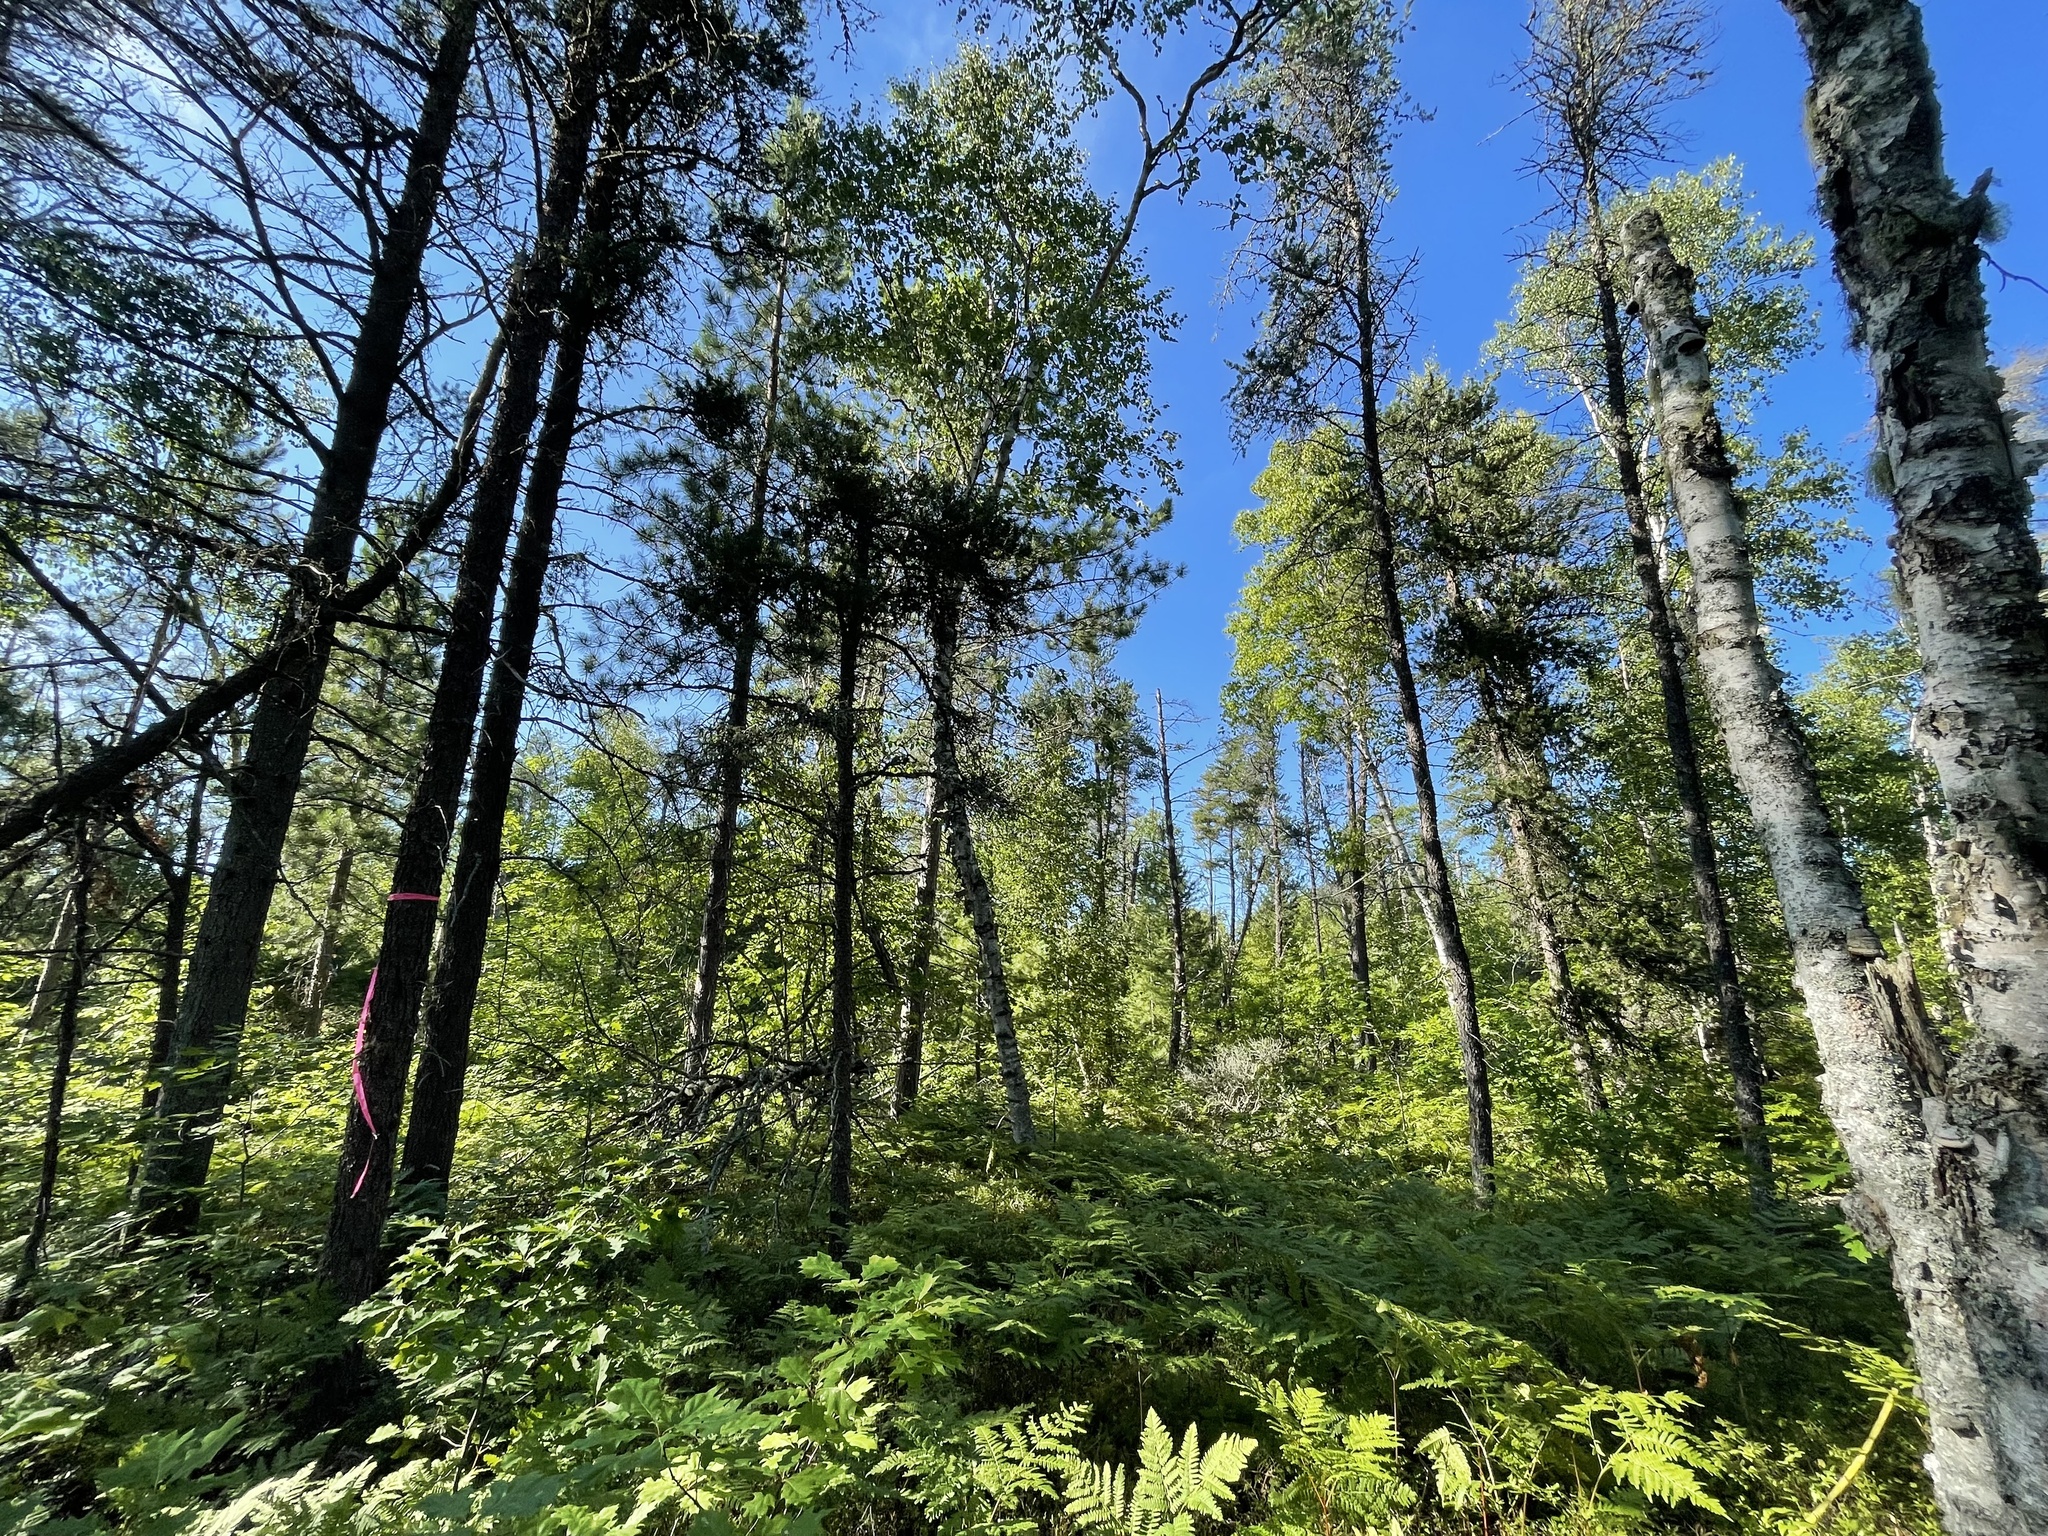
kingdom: Plantae
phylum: Tracheophyta
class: Pinopsida
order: Pinales
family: Pinaceae
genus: Pinus
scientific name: Pinus banksiana
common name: Jack pine
